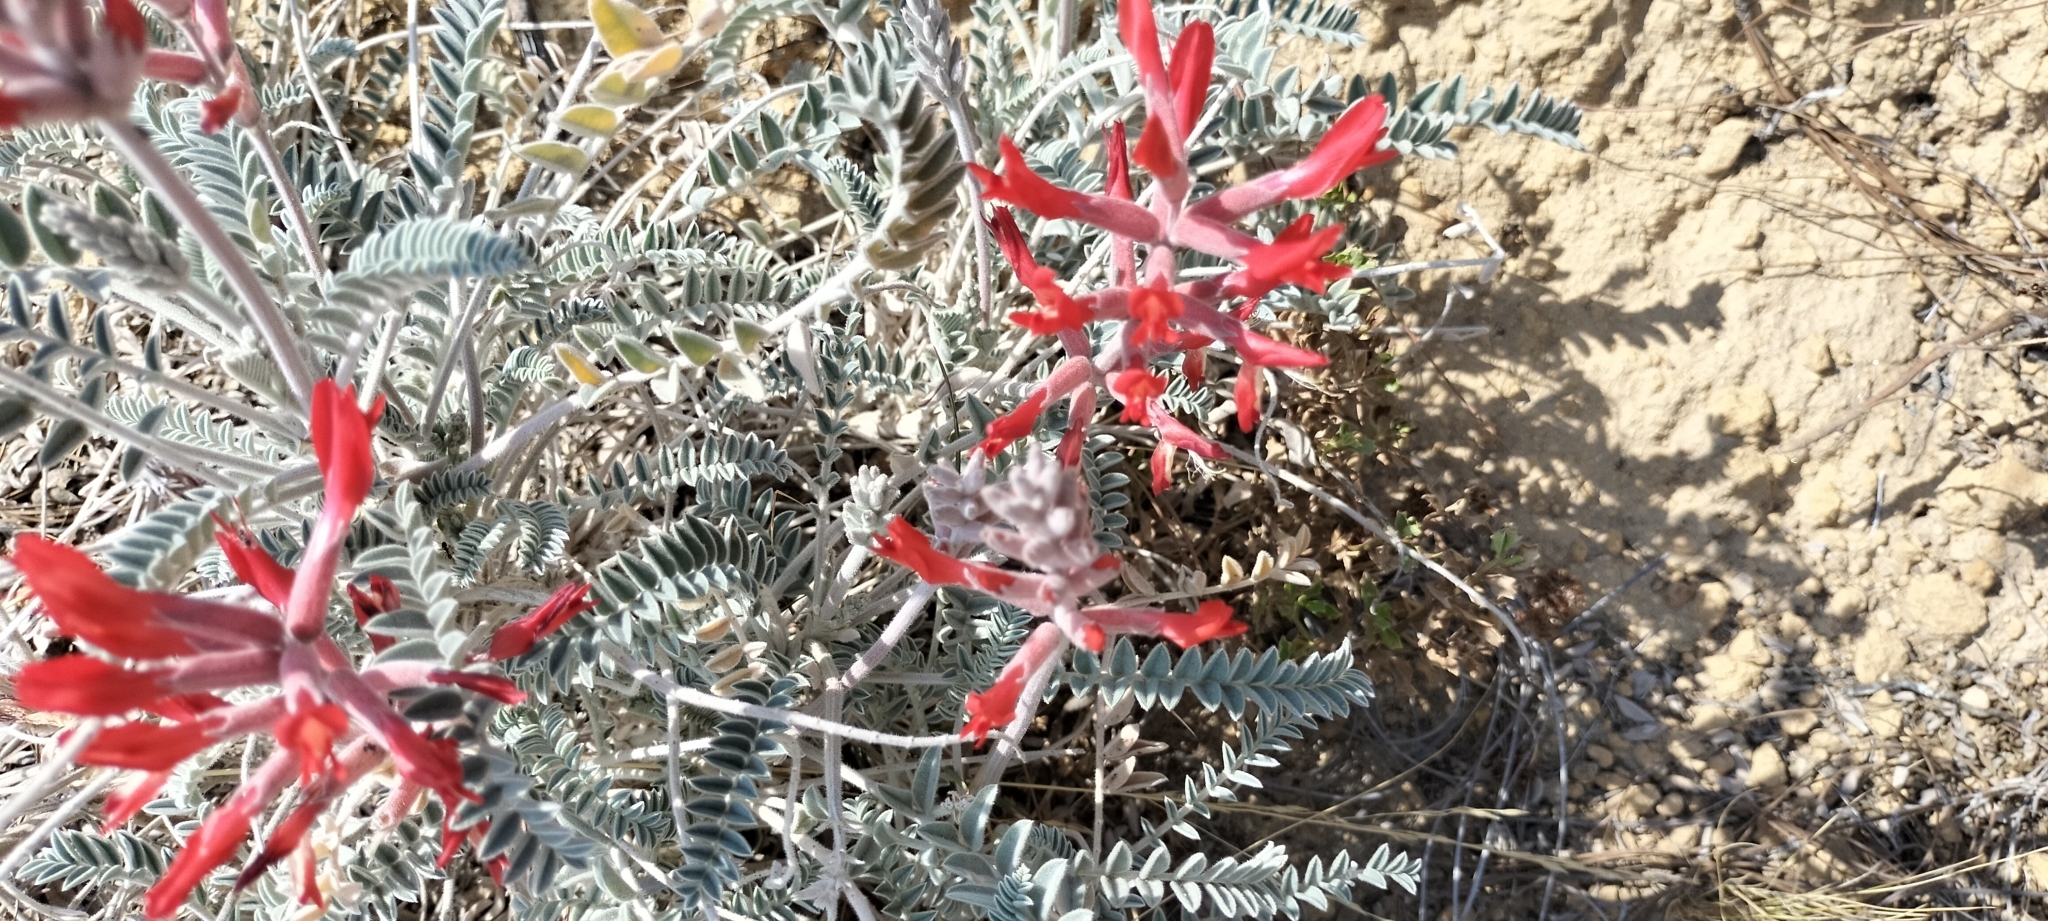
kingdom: Plantae
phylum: Tracheophyta
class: Magnoliopsida
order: Fabales
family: Fabaceae
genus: Astragalus
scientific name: Astragalus helleri
